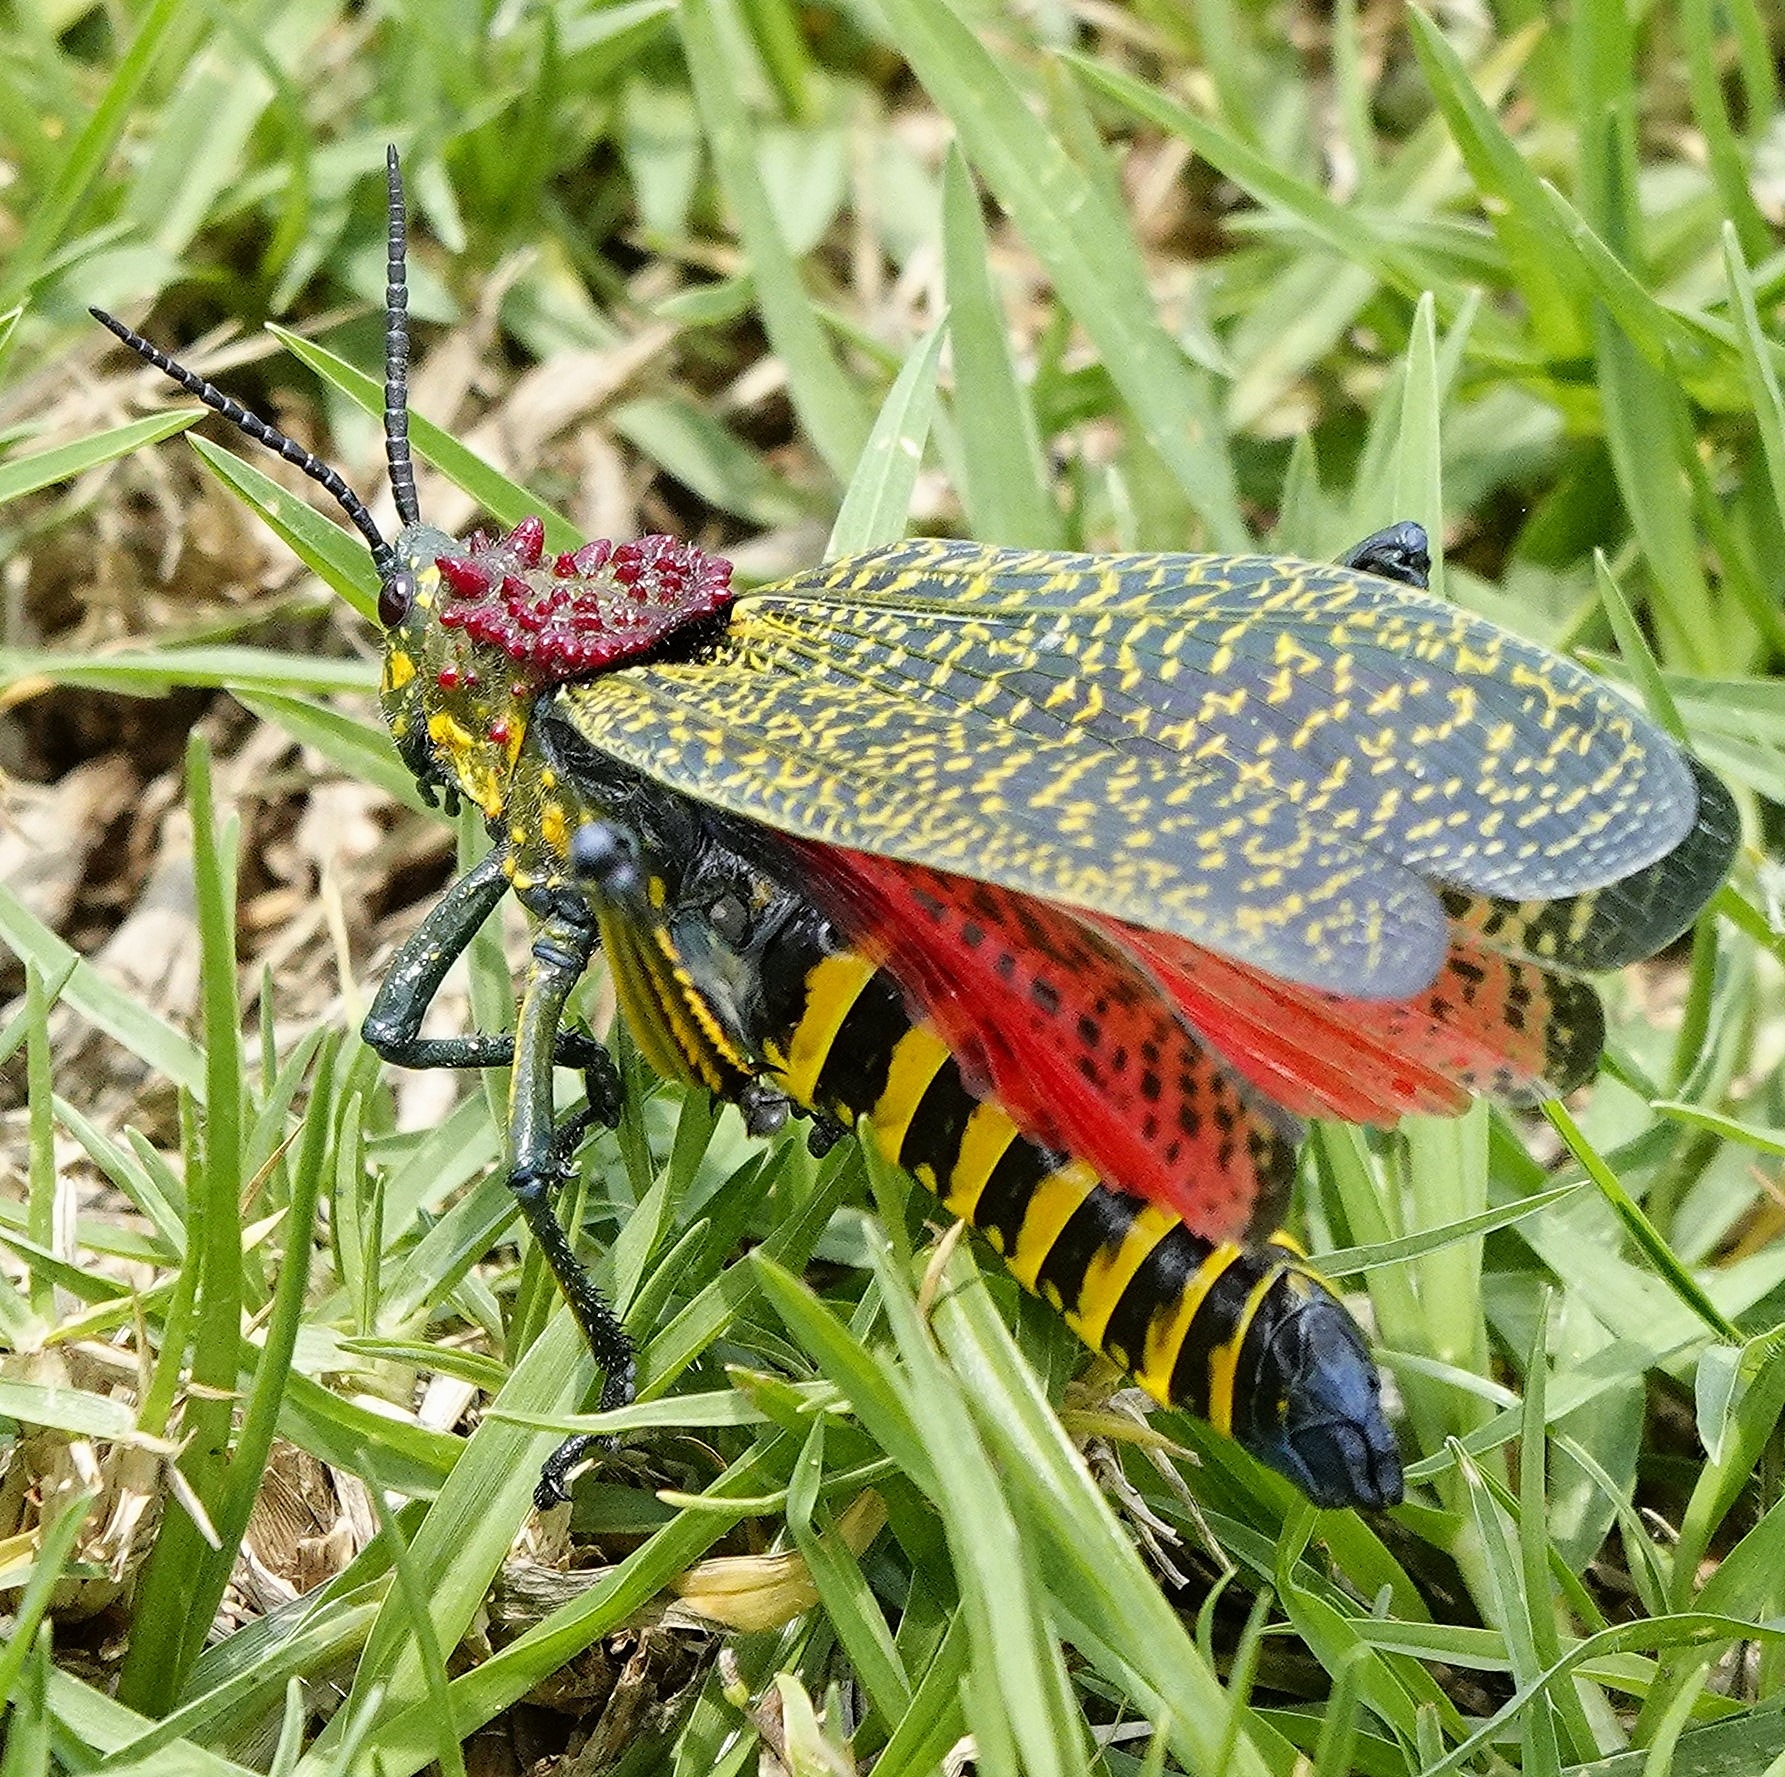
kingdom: Animalia
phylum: Arthropoda
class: Insecta
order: Orthoptera
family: Pyrgomorphidae
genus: Phymateus
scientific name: Phymateus saxosus
